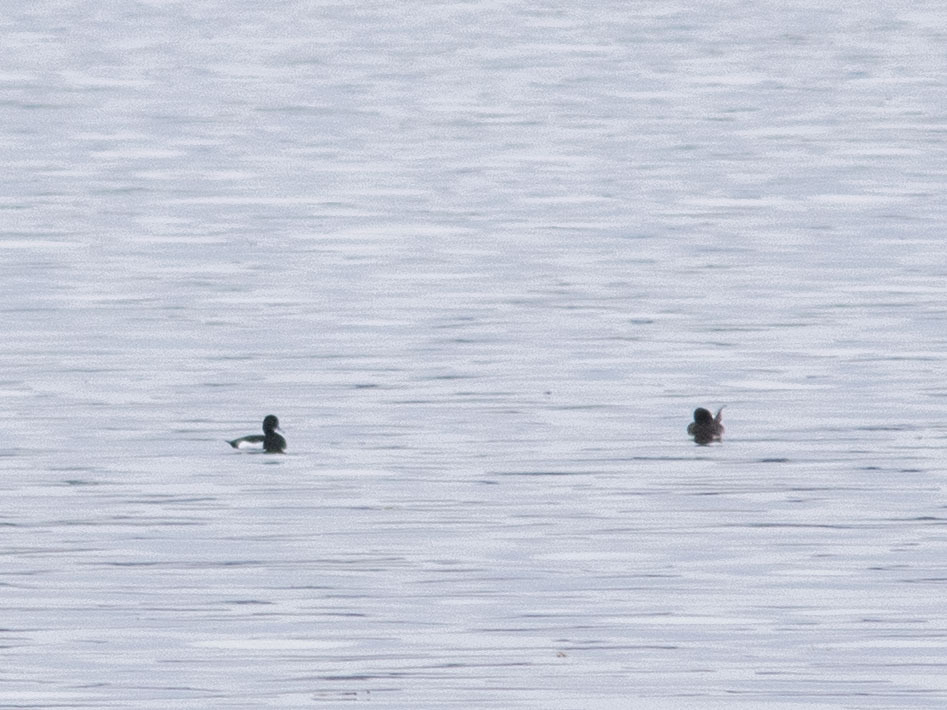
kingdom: Animalia
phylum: Chordata
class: Aves
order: Anseriformes
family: Anatidae
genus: Aythya
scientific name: Aythya fuligula
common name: Tufted duck
